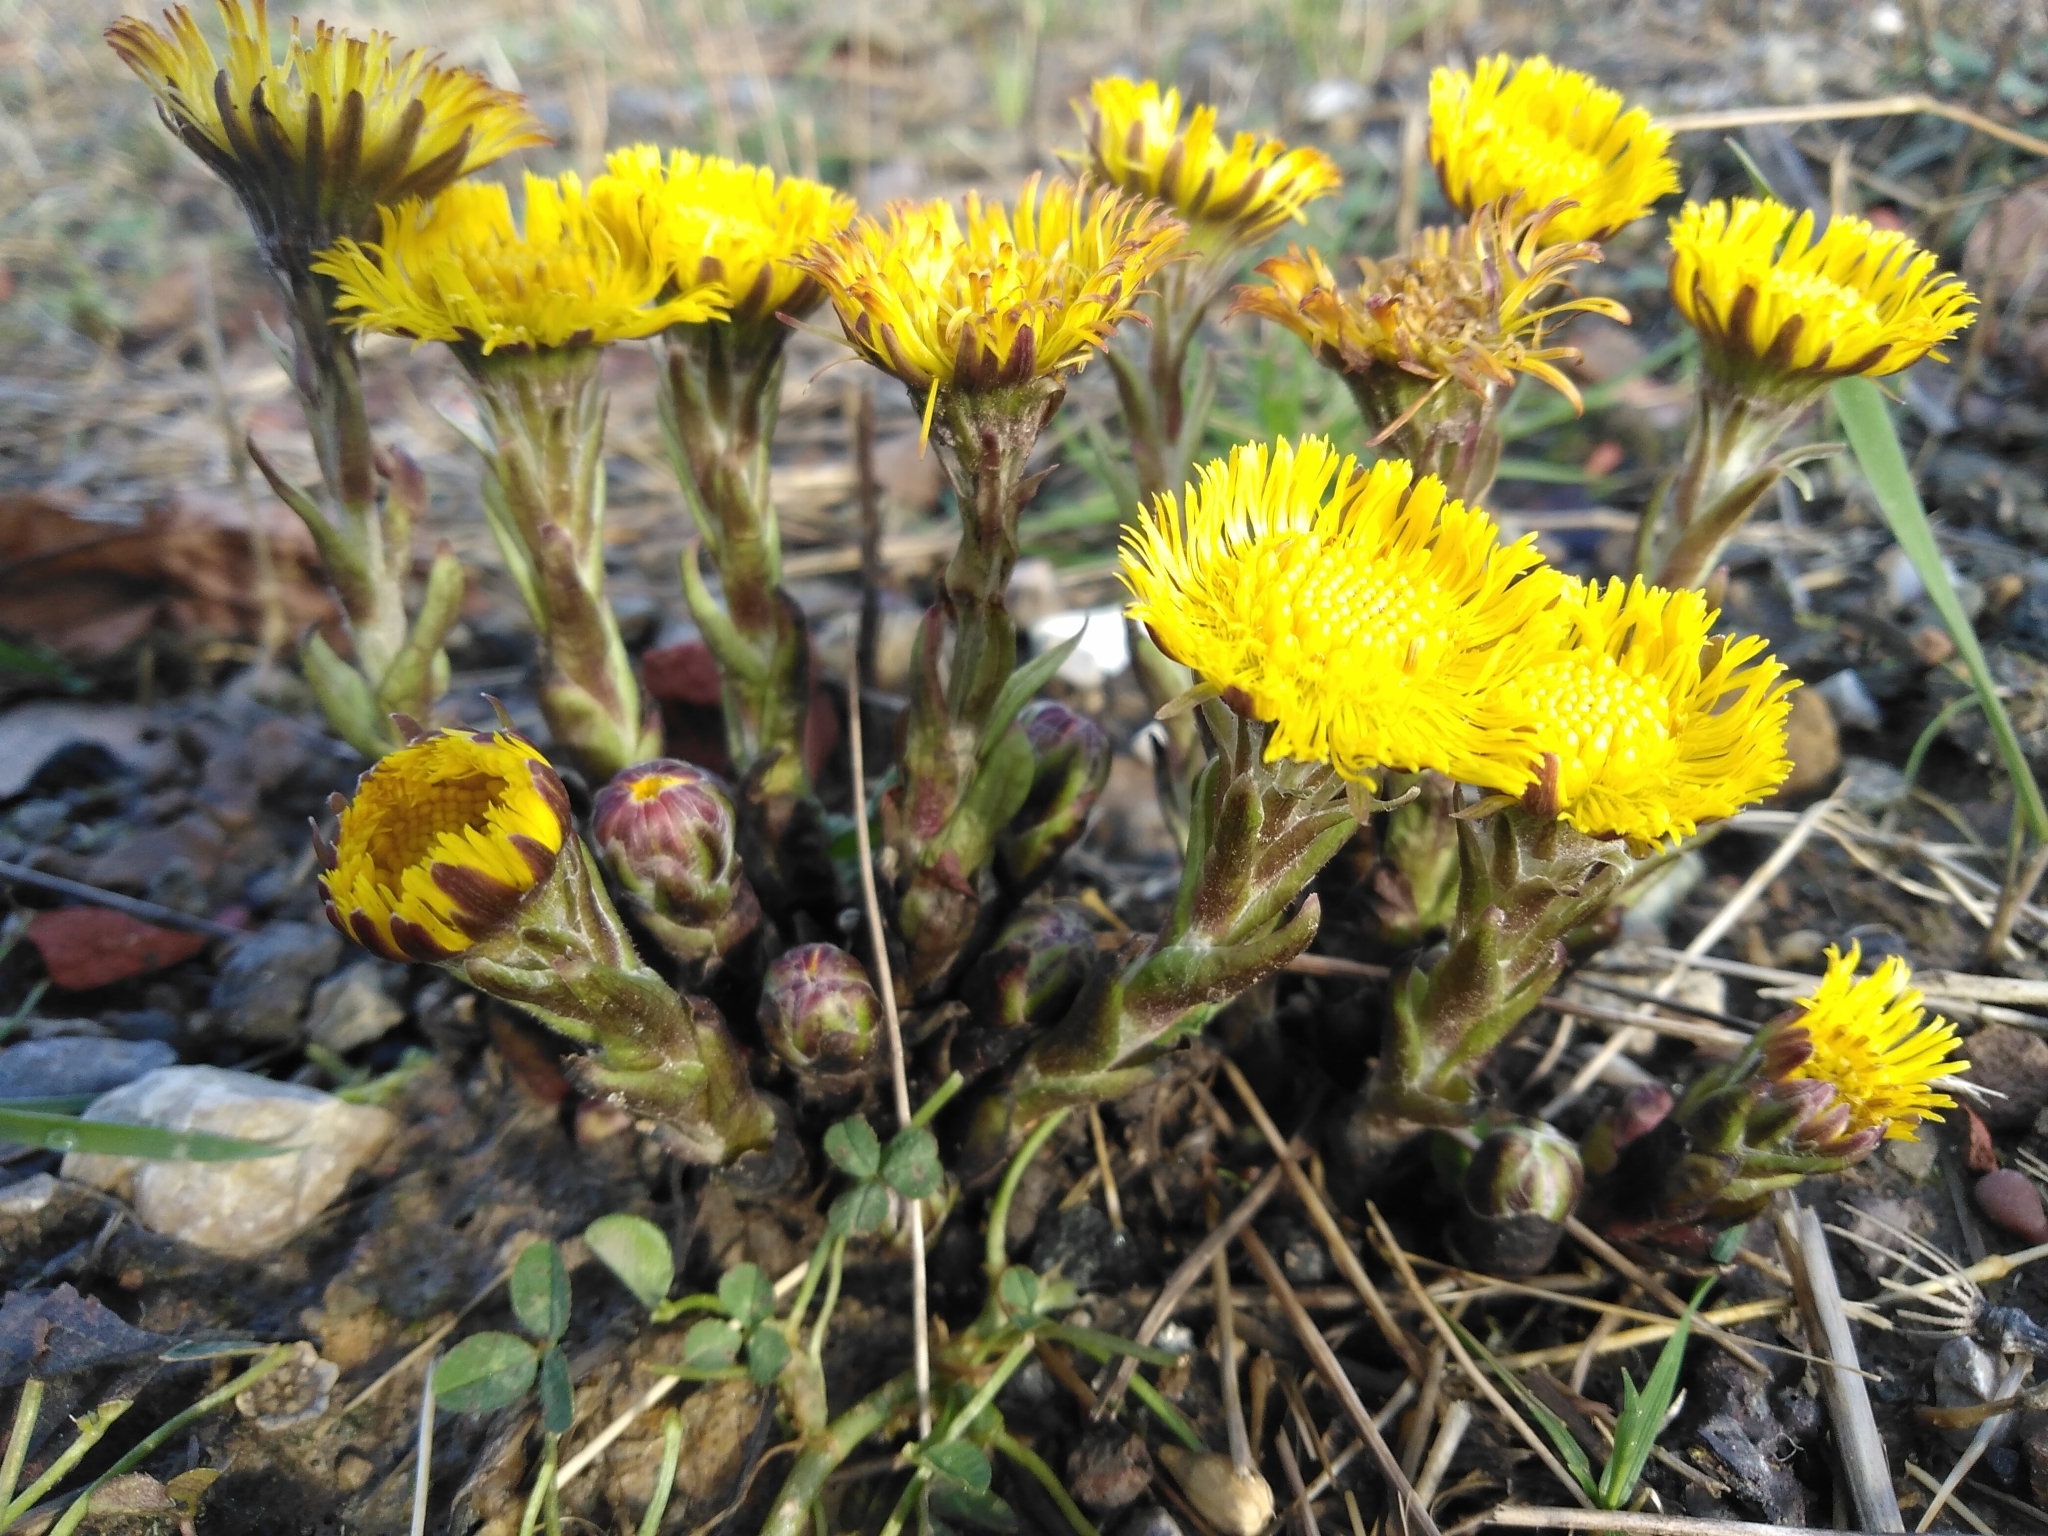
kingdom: Plantae
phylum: Tracheophyta
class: Magnoliopsida
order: Asterales
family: Asteraceae
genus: Tussilago
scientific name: Tussilago farfara
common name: Coltsfoot
